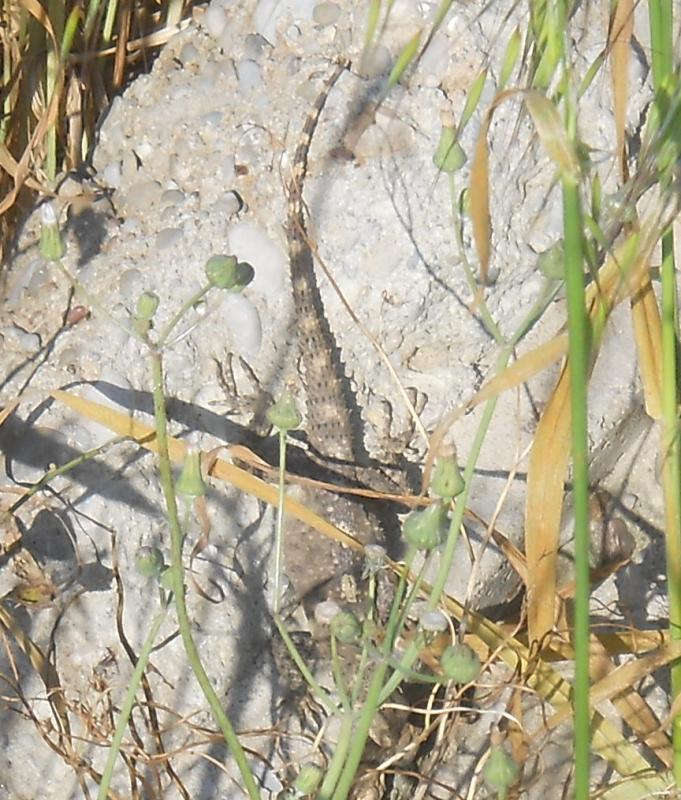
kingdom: Animalia
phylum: Chordata
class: Squamata
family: Agamidae
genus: Stellagama
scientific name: Stellagama stellio
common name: Starred agama
